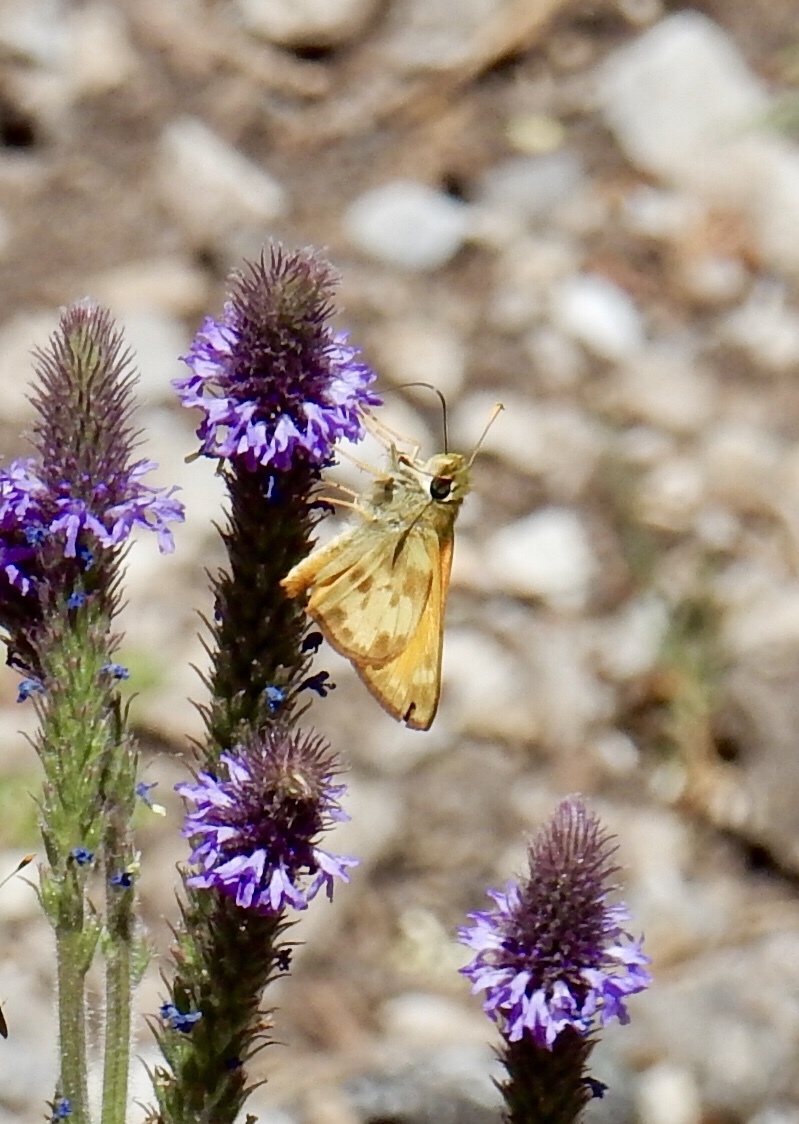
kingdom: Animalia
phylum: Arthropoda
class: Insecta
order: Lepidoptera
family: Hesperiidae
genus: Lon
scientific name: Lon taxiles
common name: Taxiles skipper
